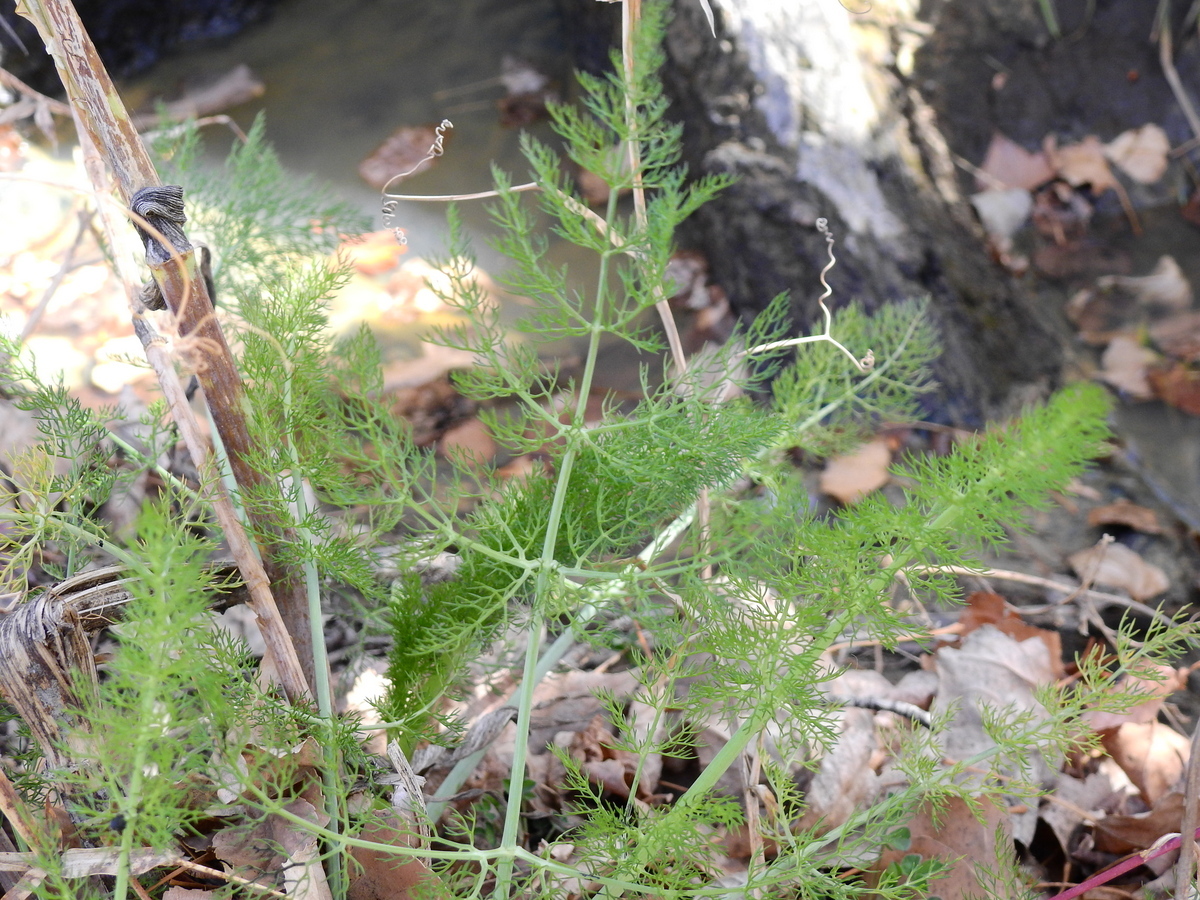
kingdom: Plantae
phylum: Tracheophyta
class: Magnoliopsida
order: Apiales
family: Apiaceae
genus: Foeniculum
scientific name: Foeniculum vulgare
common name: Fennel
